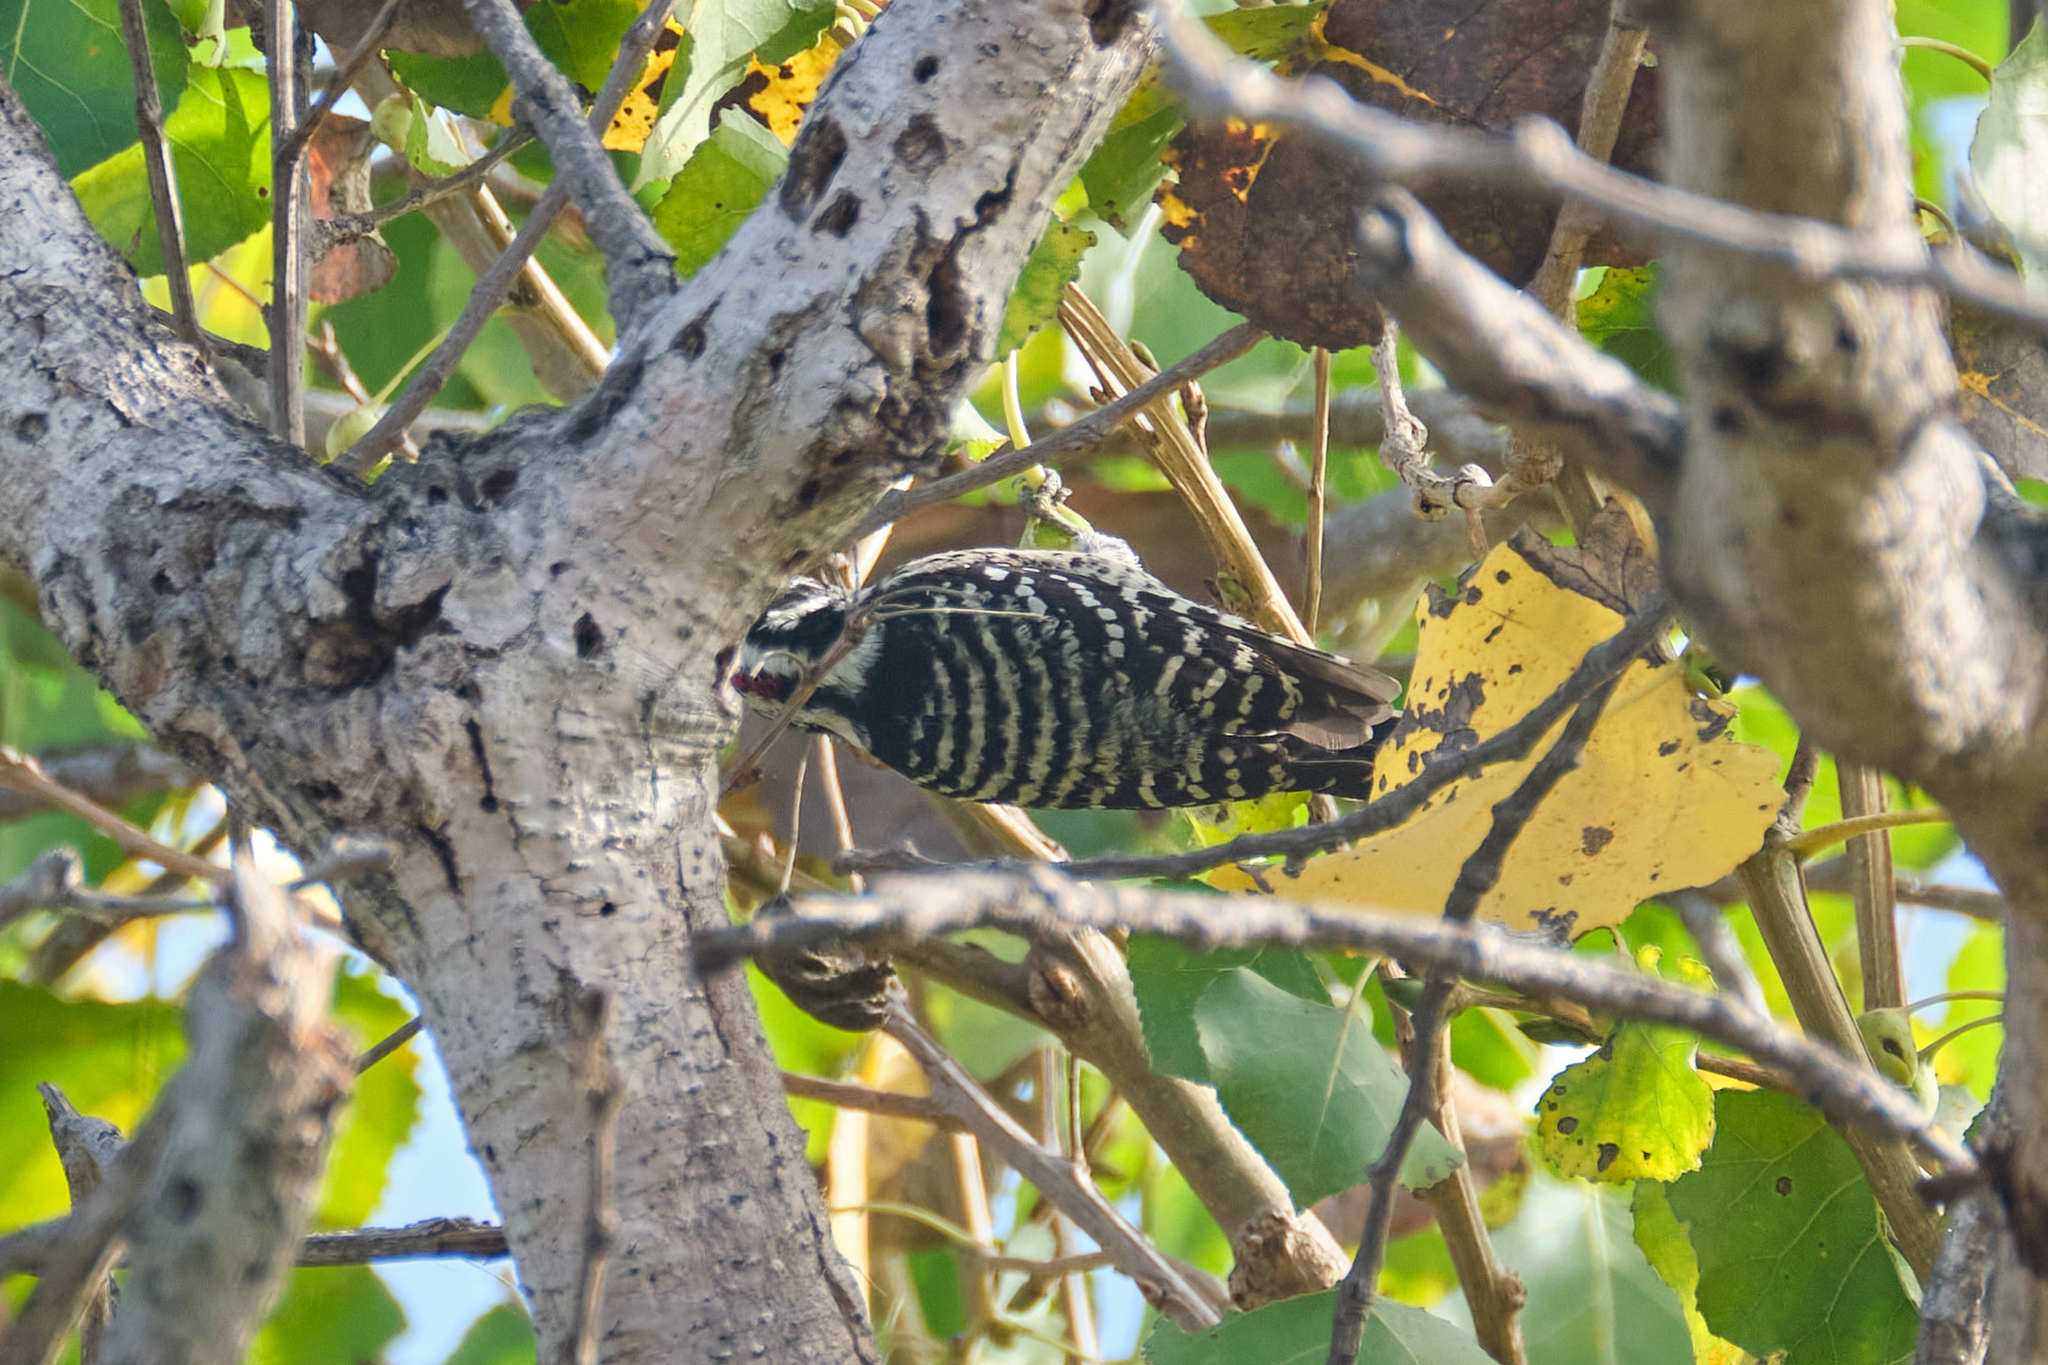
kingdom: Animalia
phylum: Chordata
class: Aves
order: Piciformes
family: Picidae
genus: Dryobates
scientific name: Dryobates nuttallii
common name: Nuttall's woodpecker
